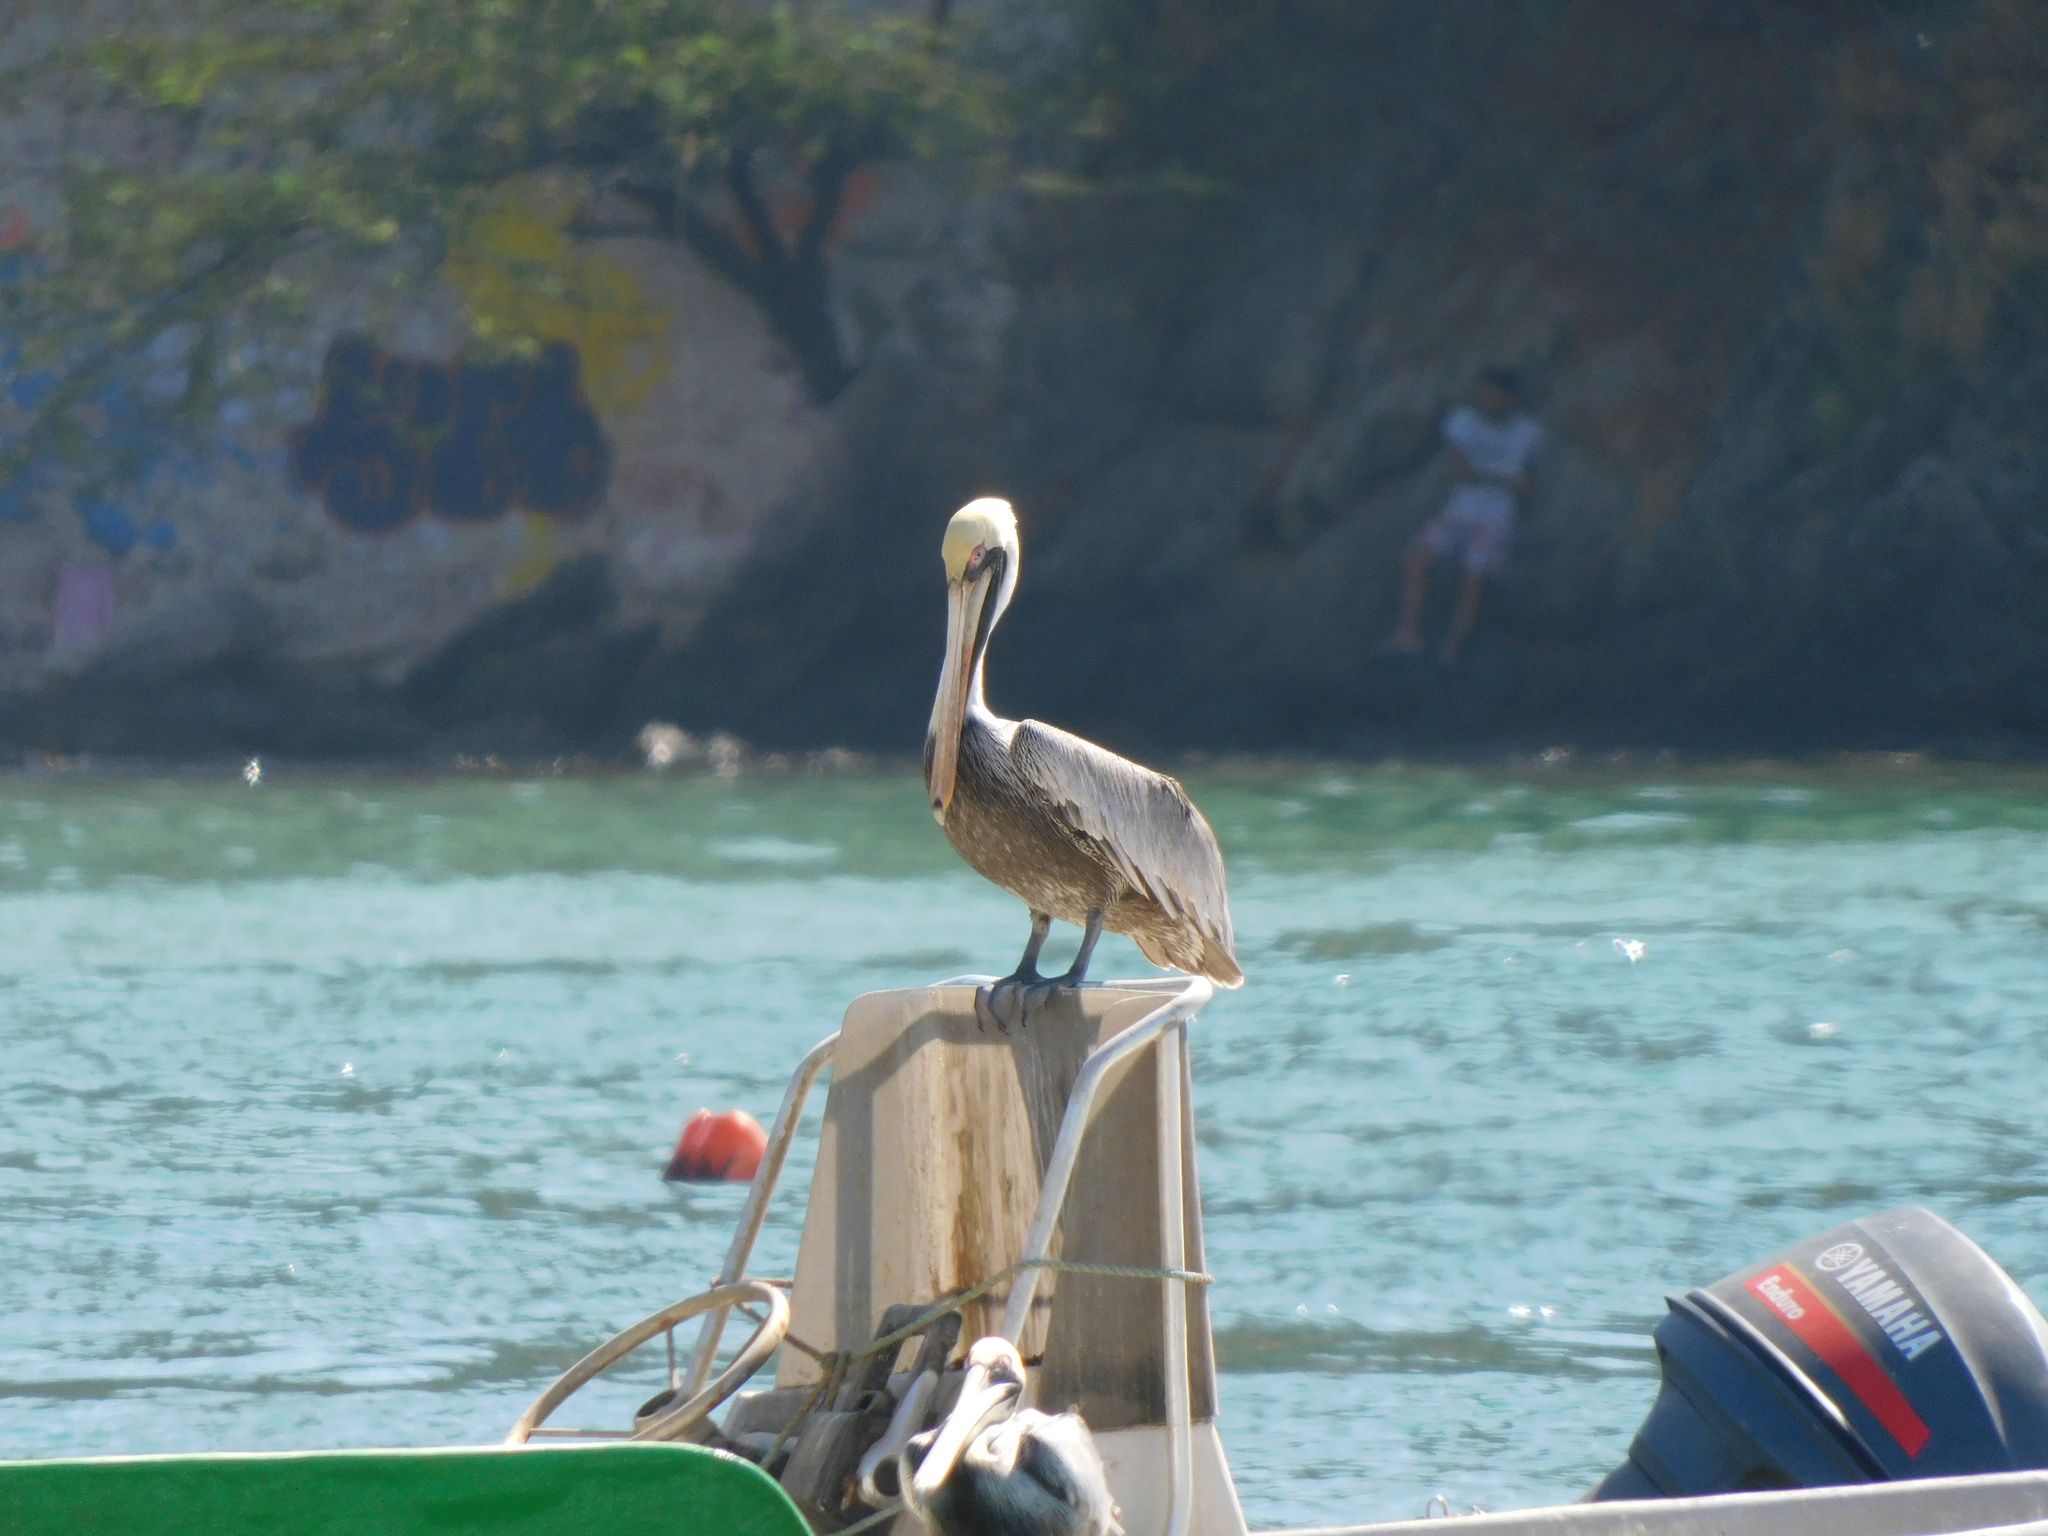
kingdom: Animalia
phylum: Chordata
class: Aves
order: Pelecaniformes
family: Pelecanidae
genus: Pelecanus
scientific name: Pelecanus occidentalis
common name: Brown pelican
